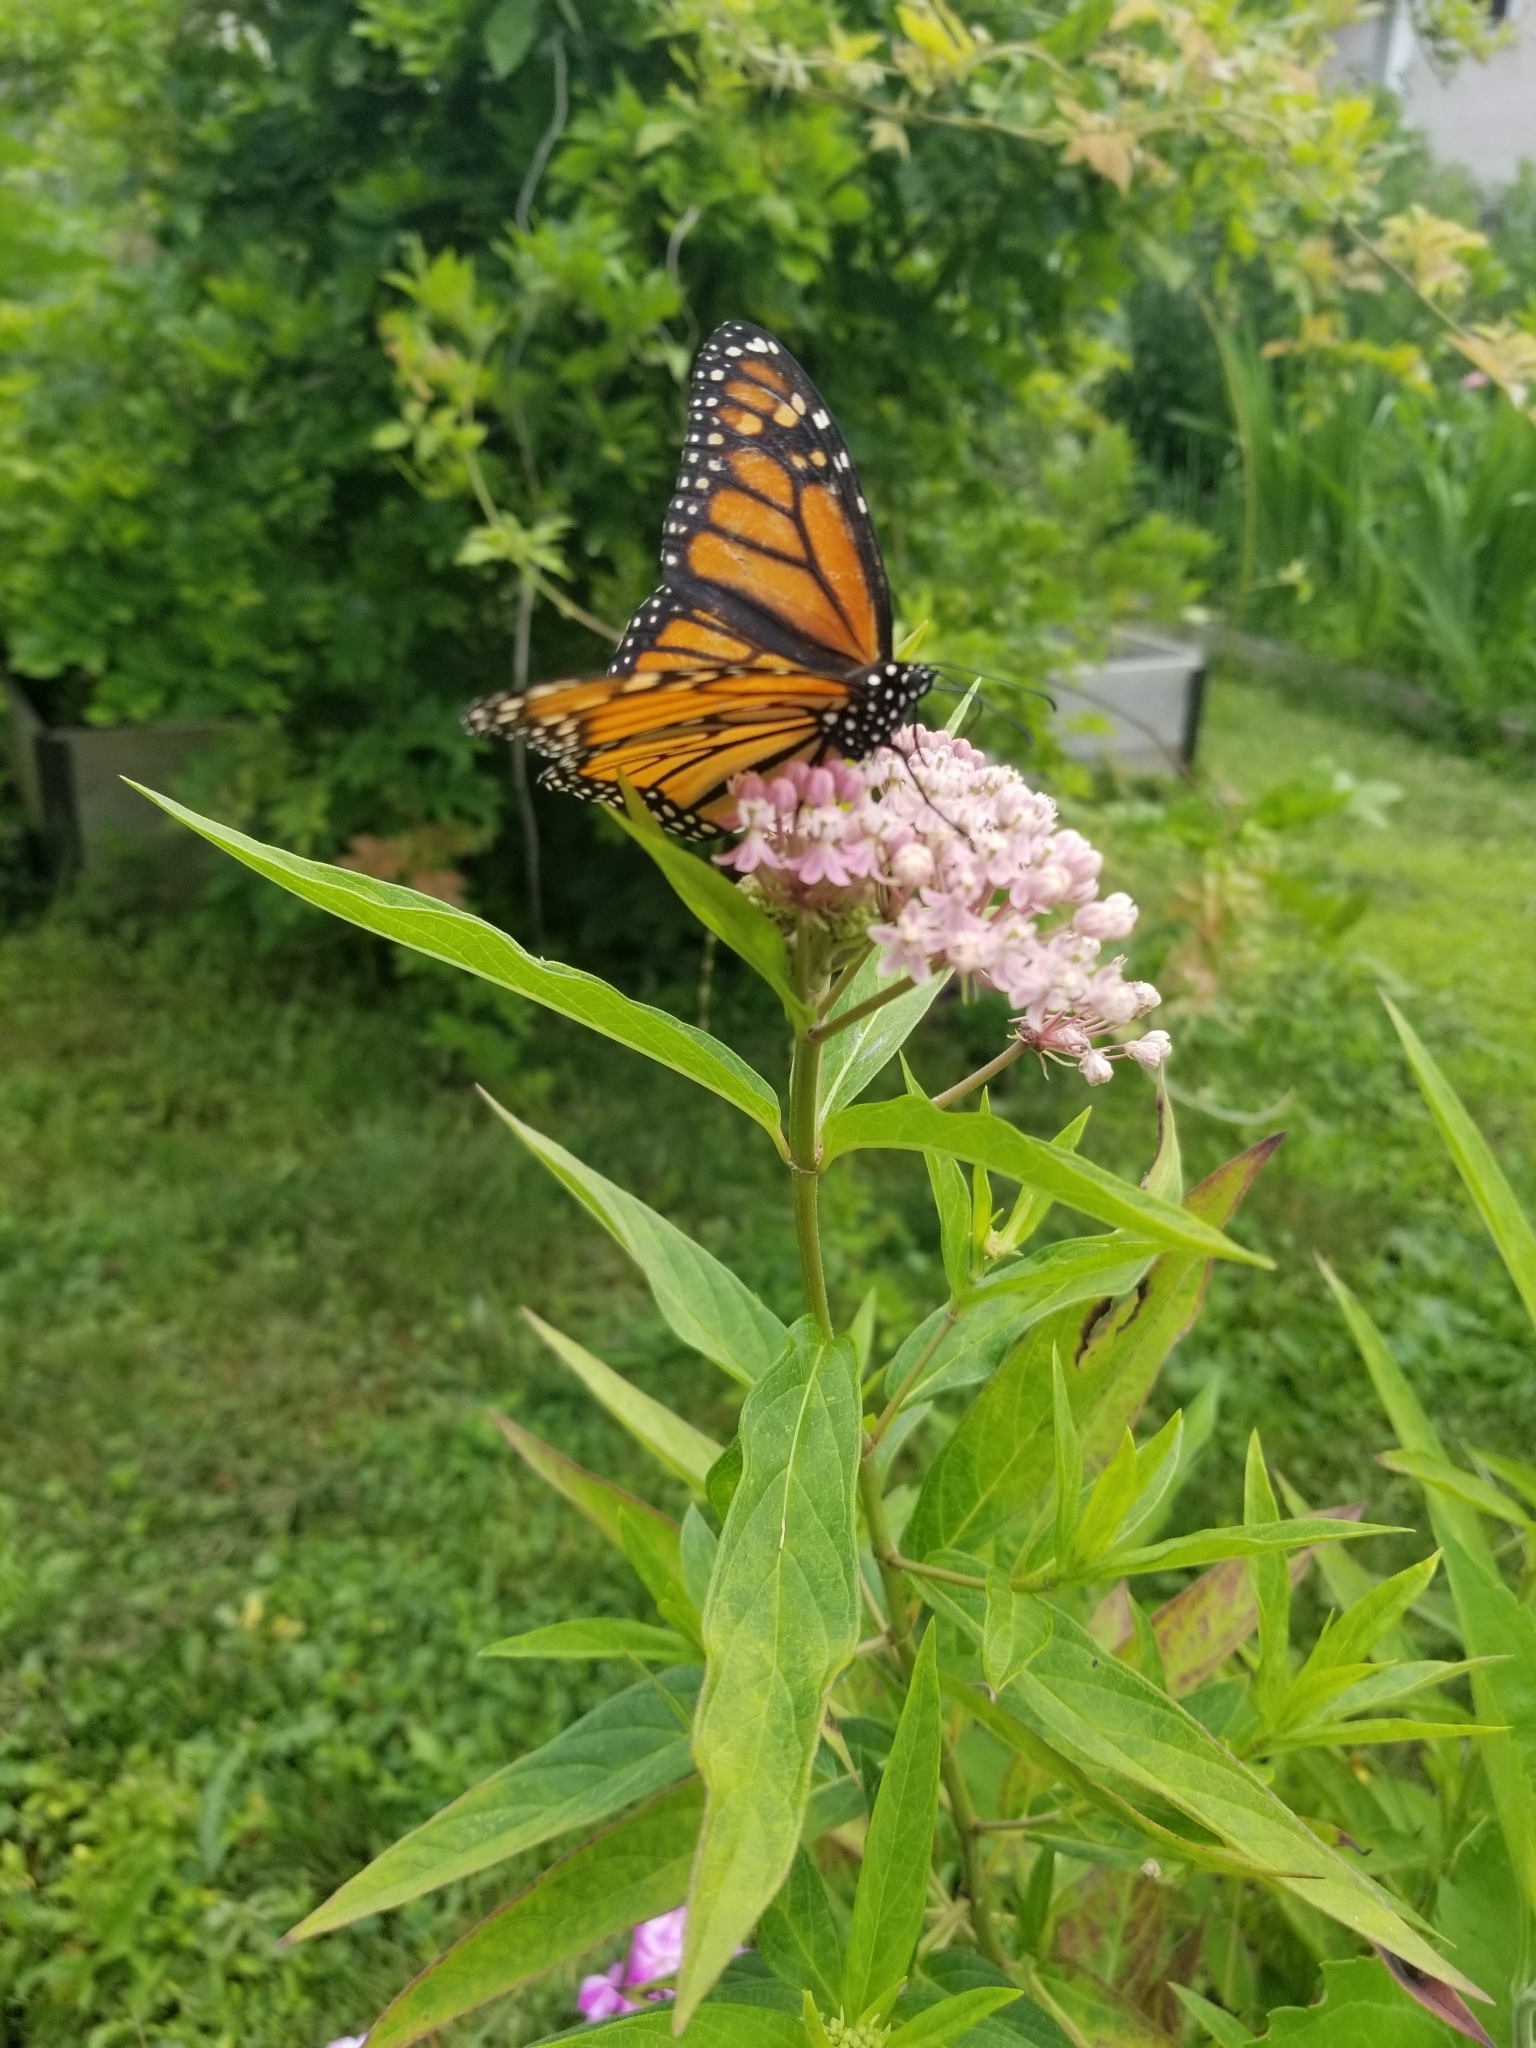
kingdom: Animalia
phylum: Arthropoda
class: Insecta
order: Lepidoptera
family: Nymphalidae
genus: Danaus
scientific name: Danaus plexippus
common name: Monarch
